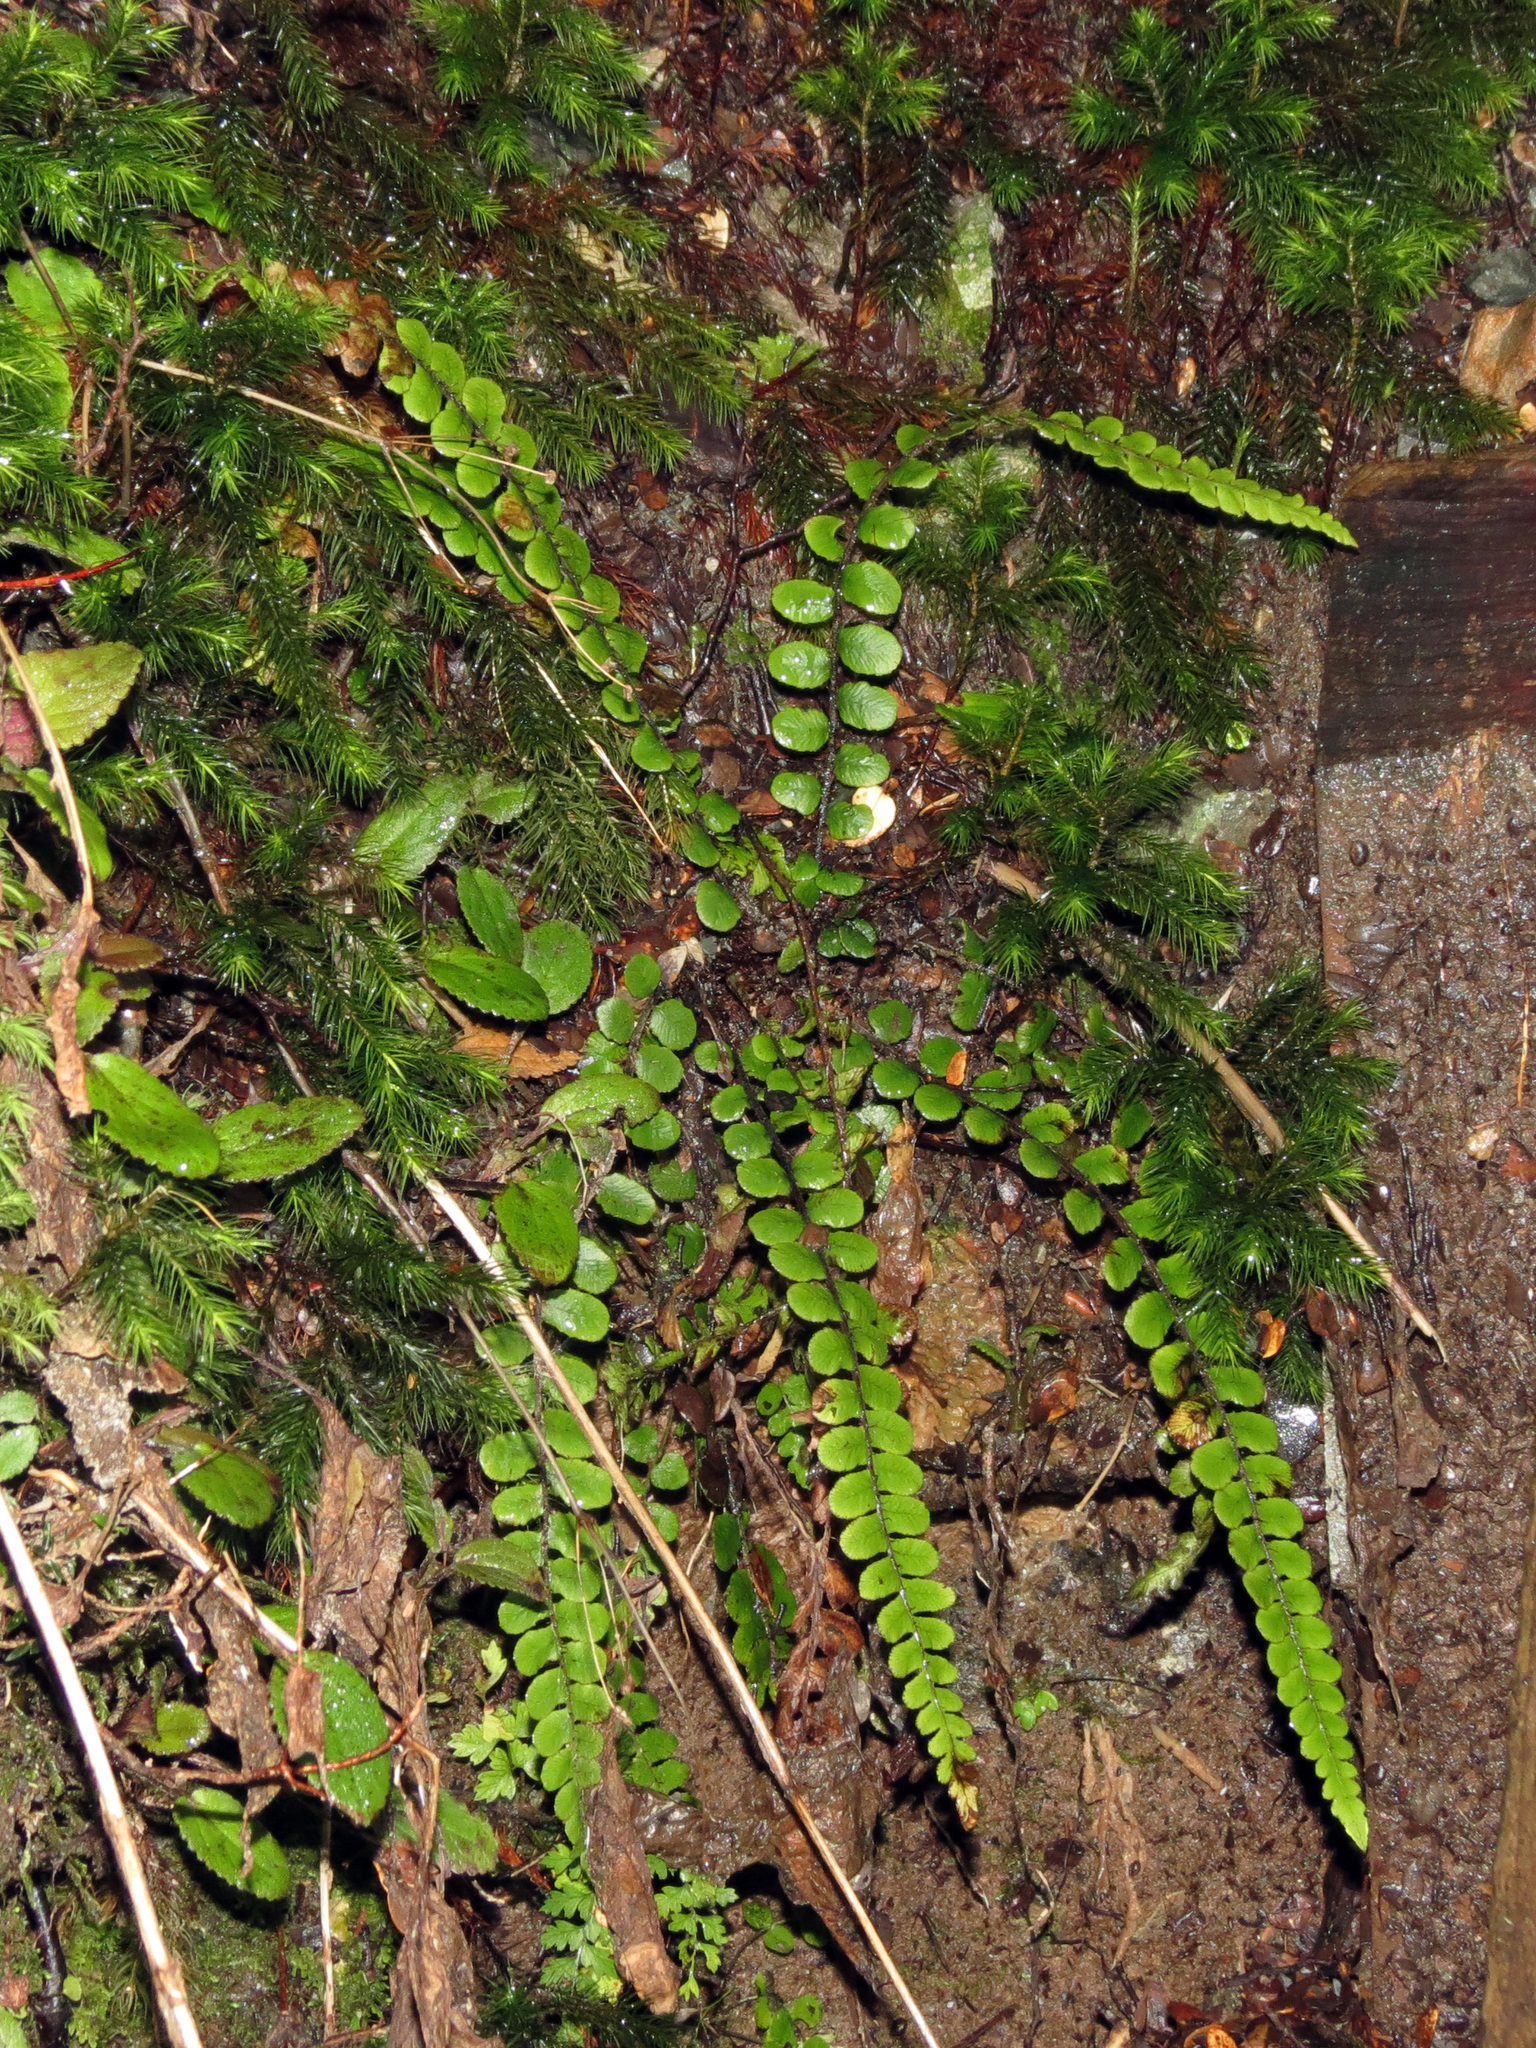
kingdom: Plantae
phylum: Tracheophyta
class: Polypodiopsida
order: Polypodiales
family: Blechnaceae
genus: Cranfillia
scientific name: Cranfillia fluviatilis
